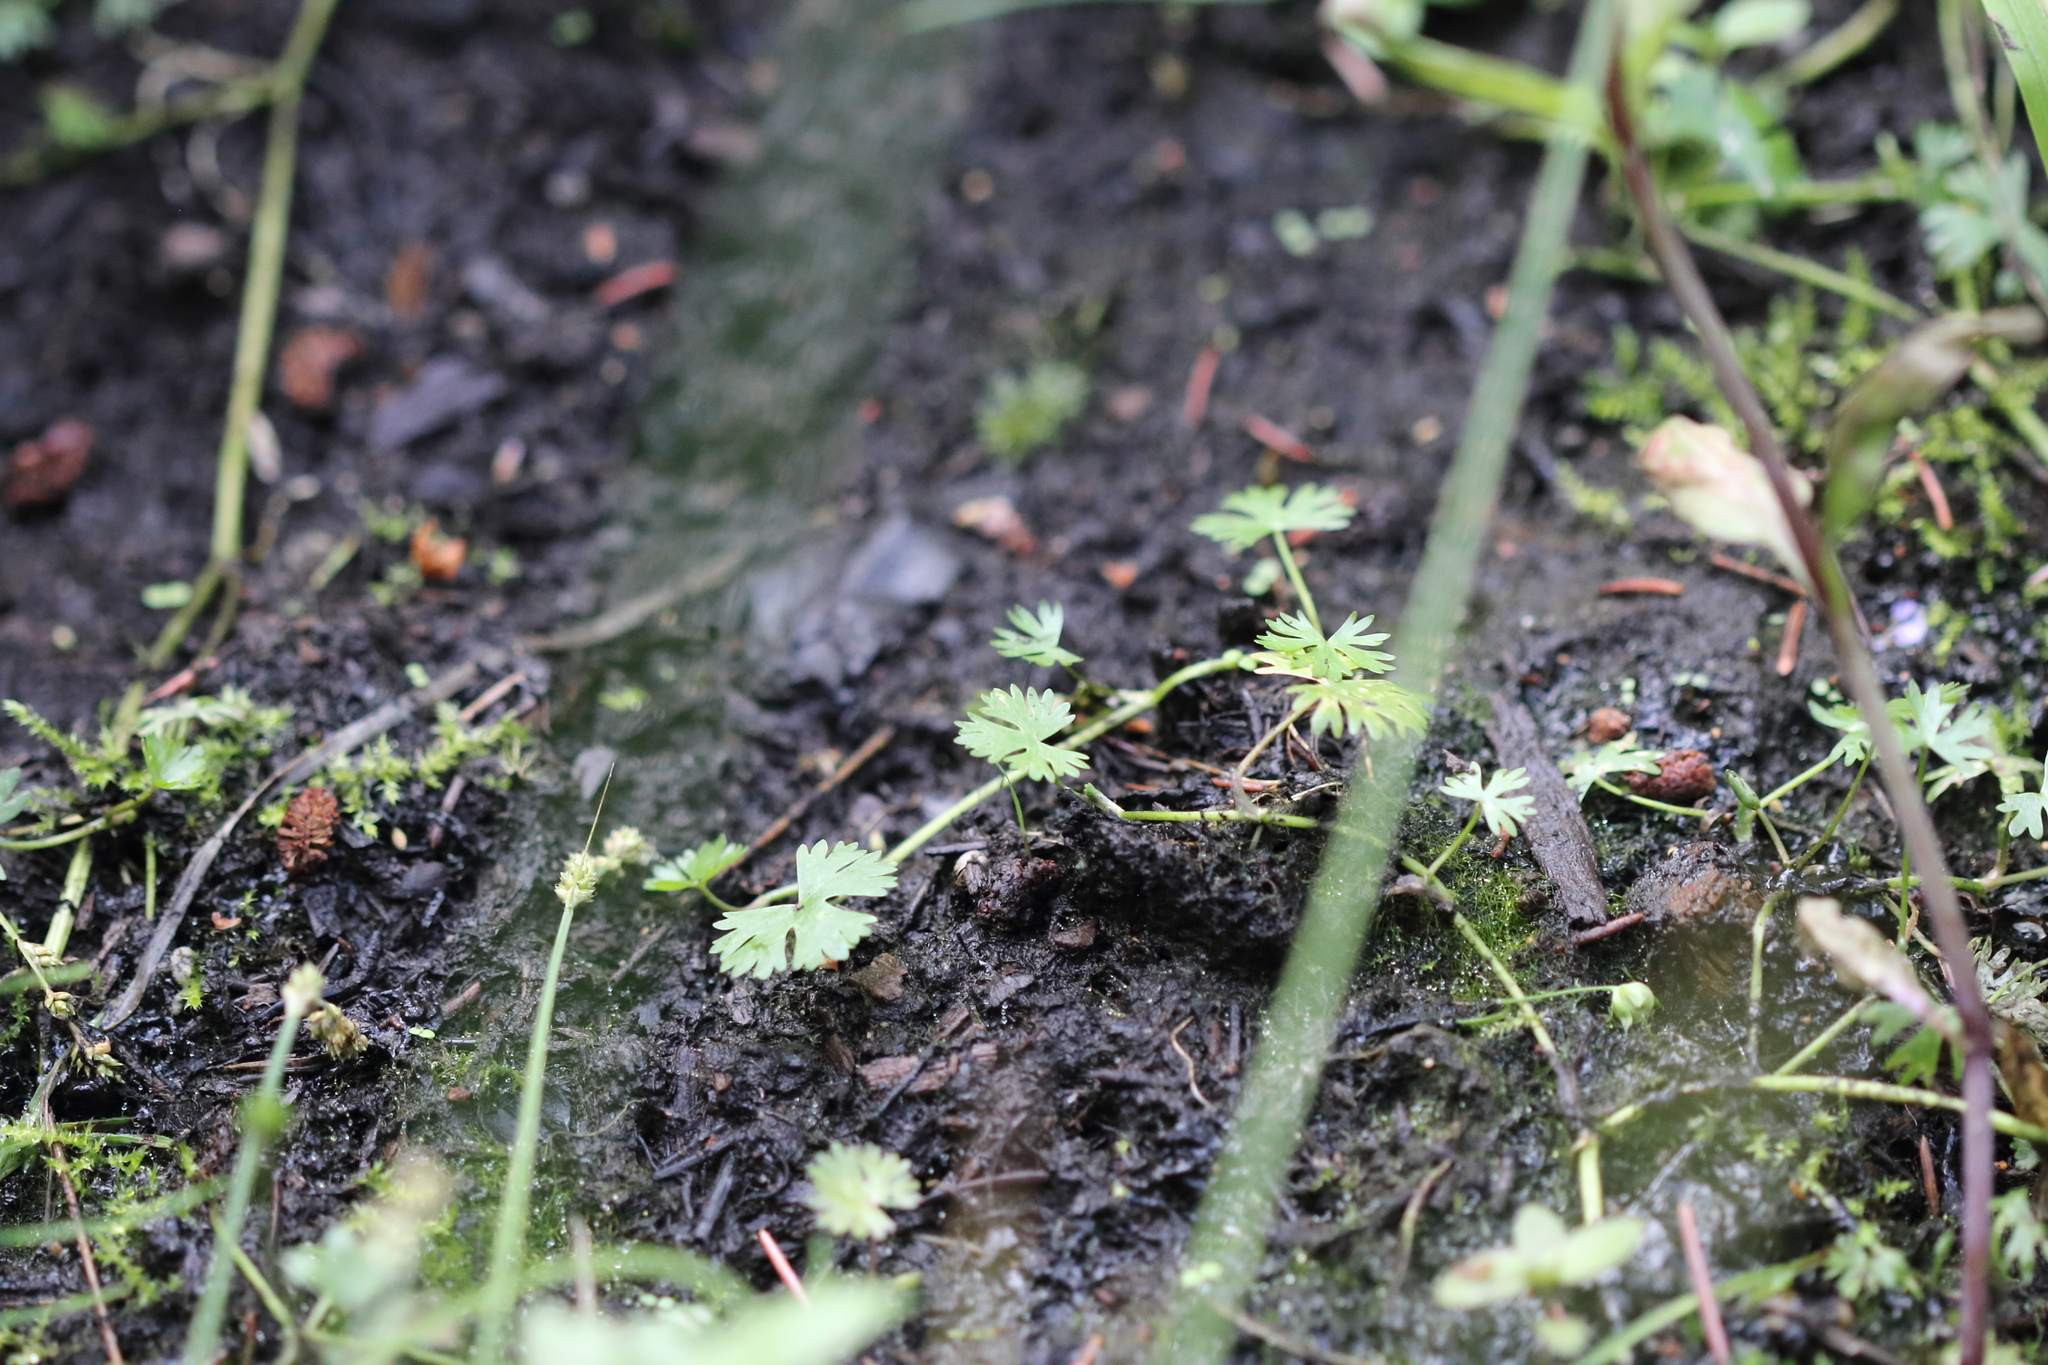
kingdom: Plantae
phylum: Tracheophyta
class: Magnoliopsida
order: Ranunculales
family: Ranunculaceae
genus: Ranunculus
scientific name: Ranunculus gmelinii
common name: Gmelin's buttercup
